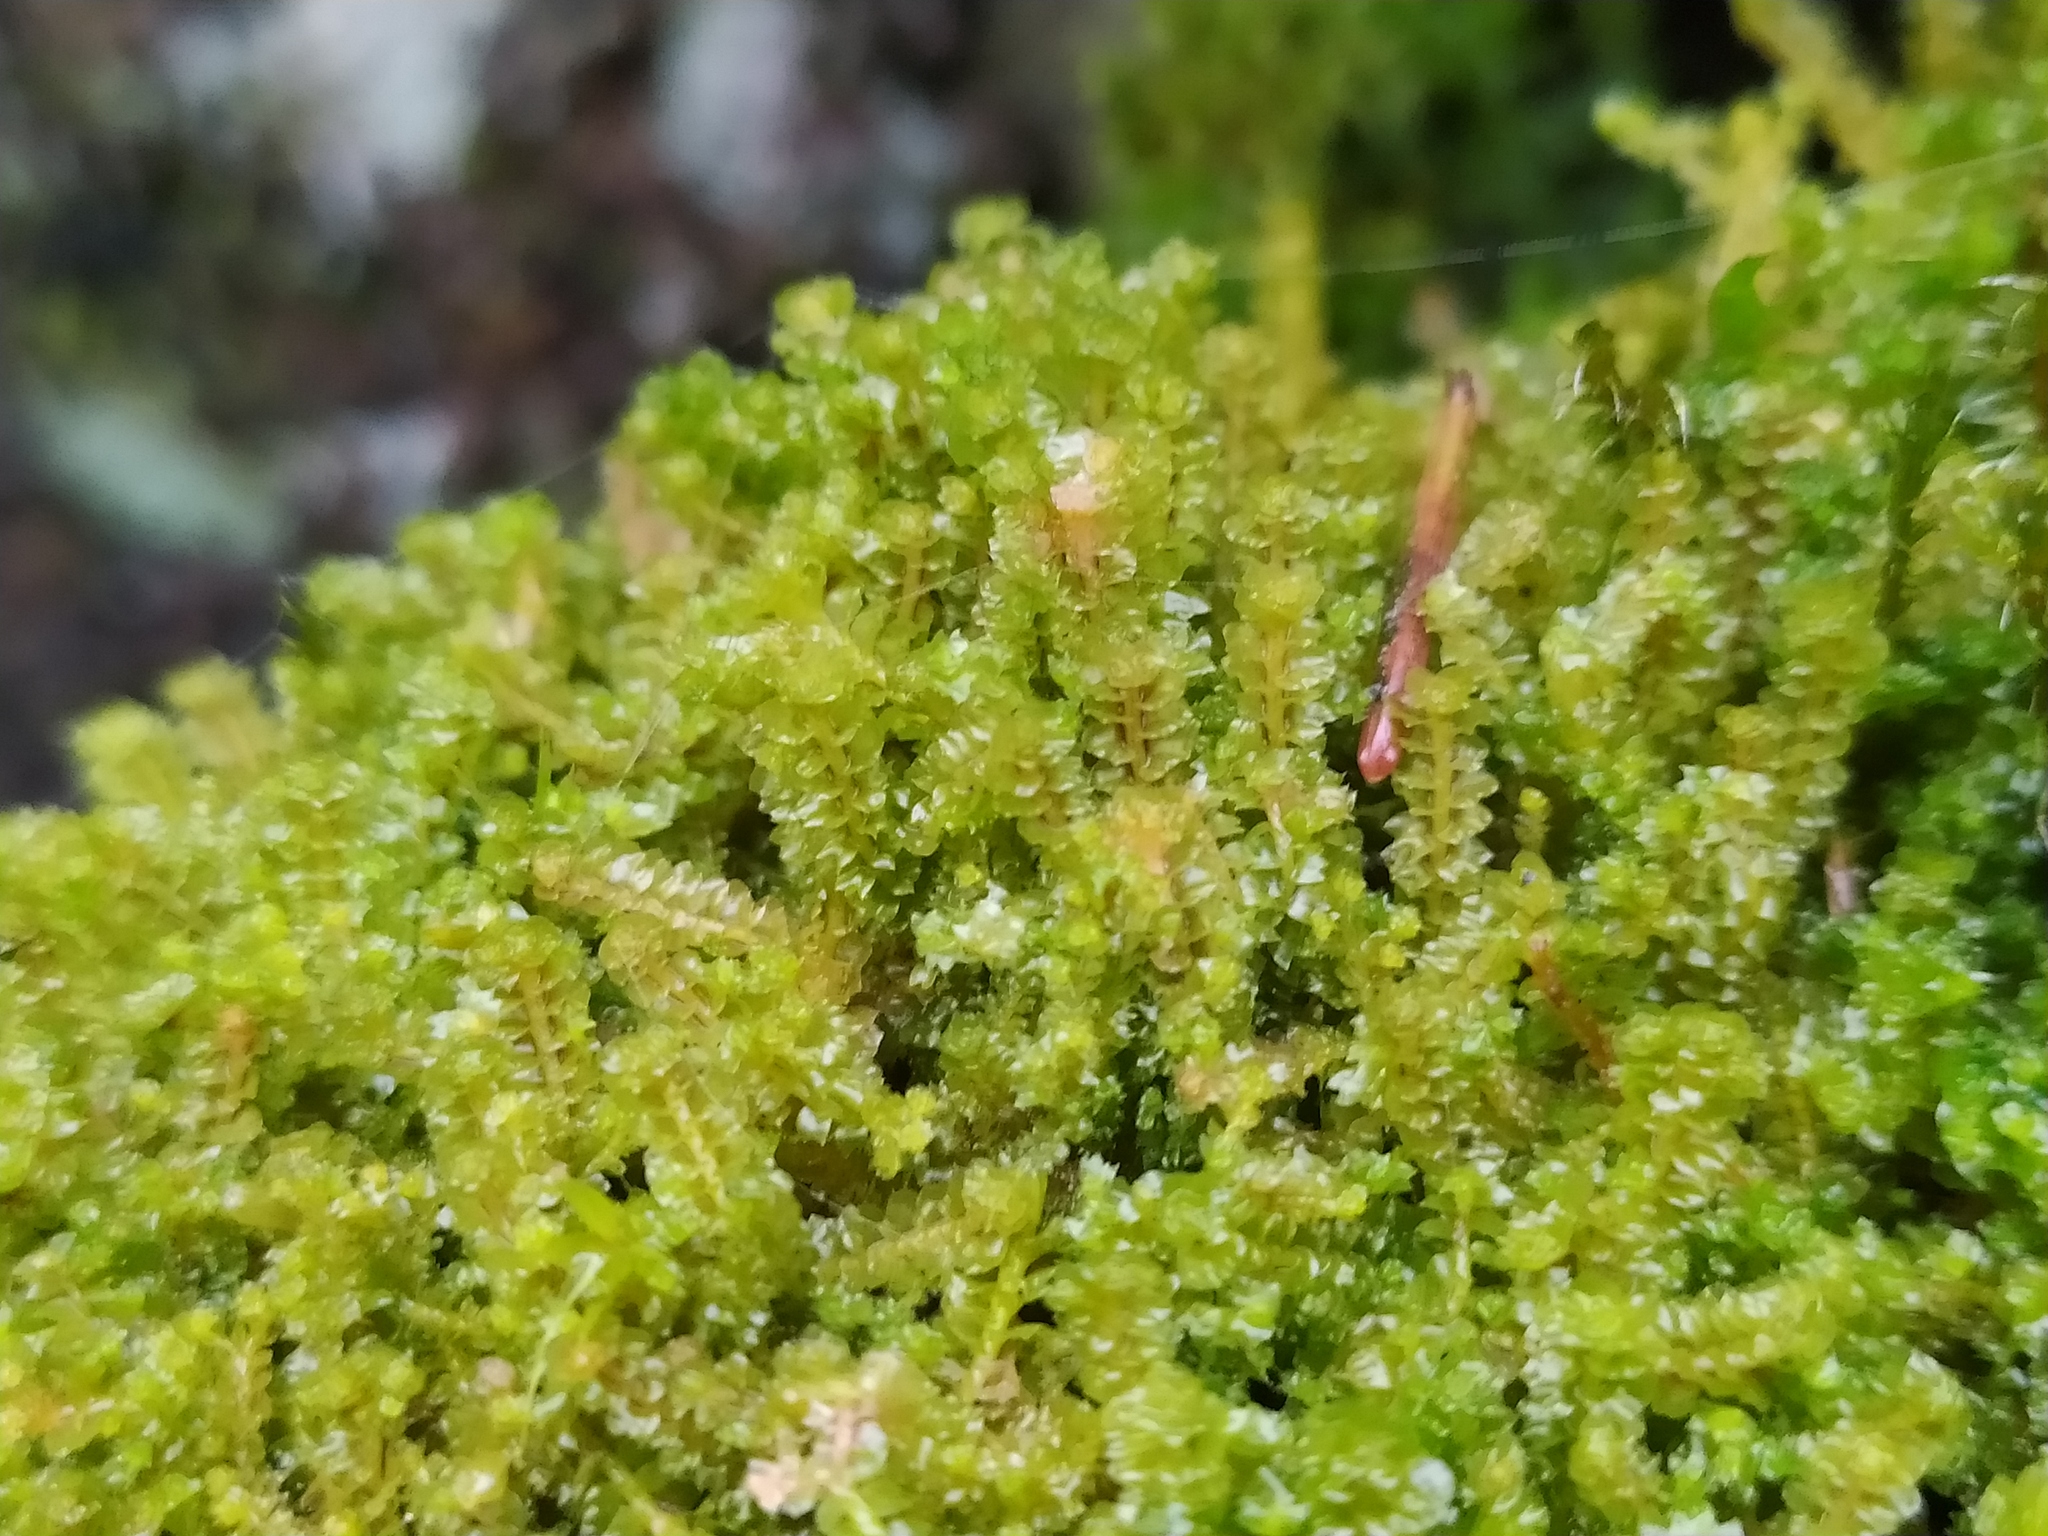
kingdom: Plantae
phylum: Marchantiophyta
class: Jungermanniopsida
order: Jungermanniales
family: Lophoziaceae
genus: Trilophozia
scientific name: Trilophozia quinquedentata
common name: Large notchwort
